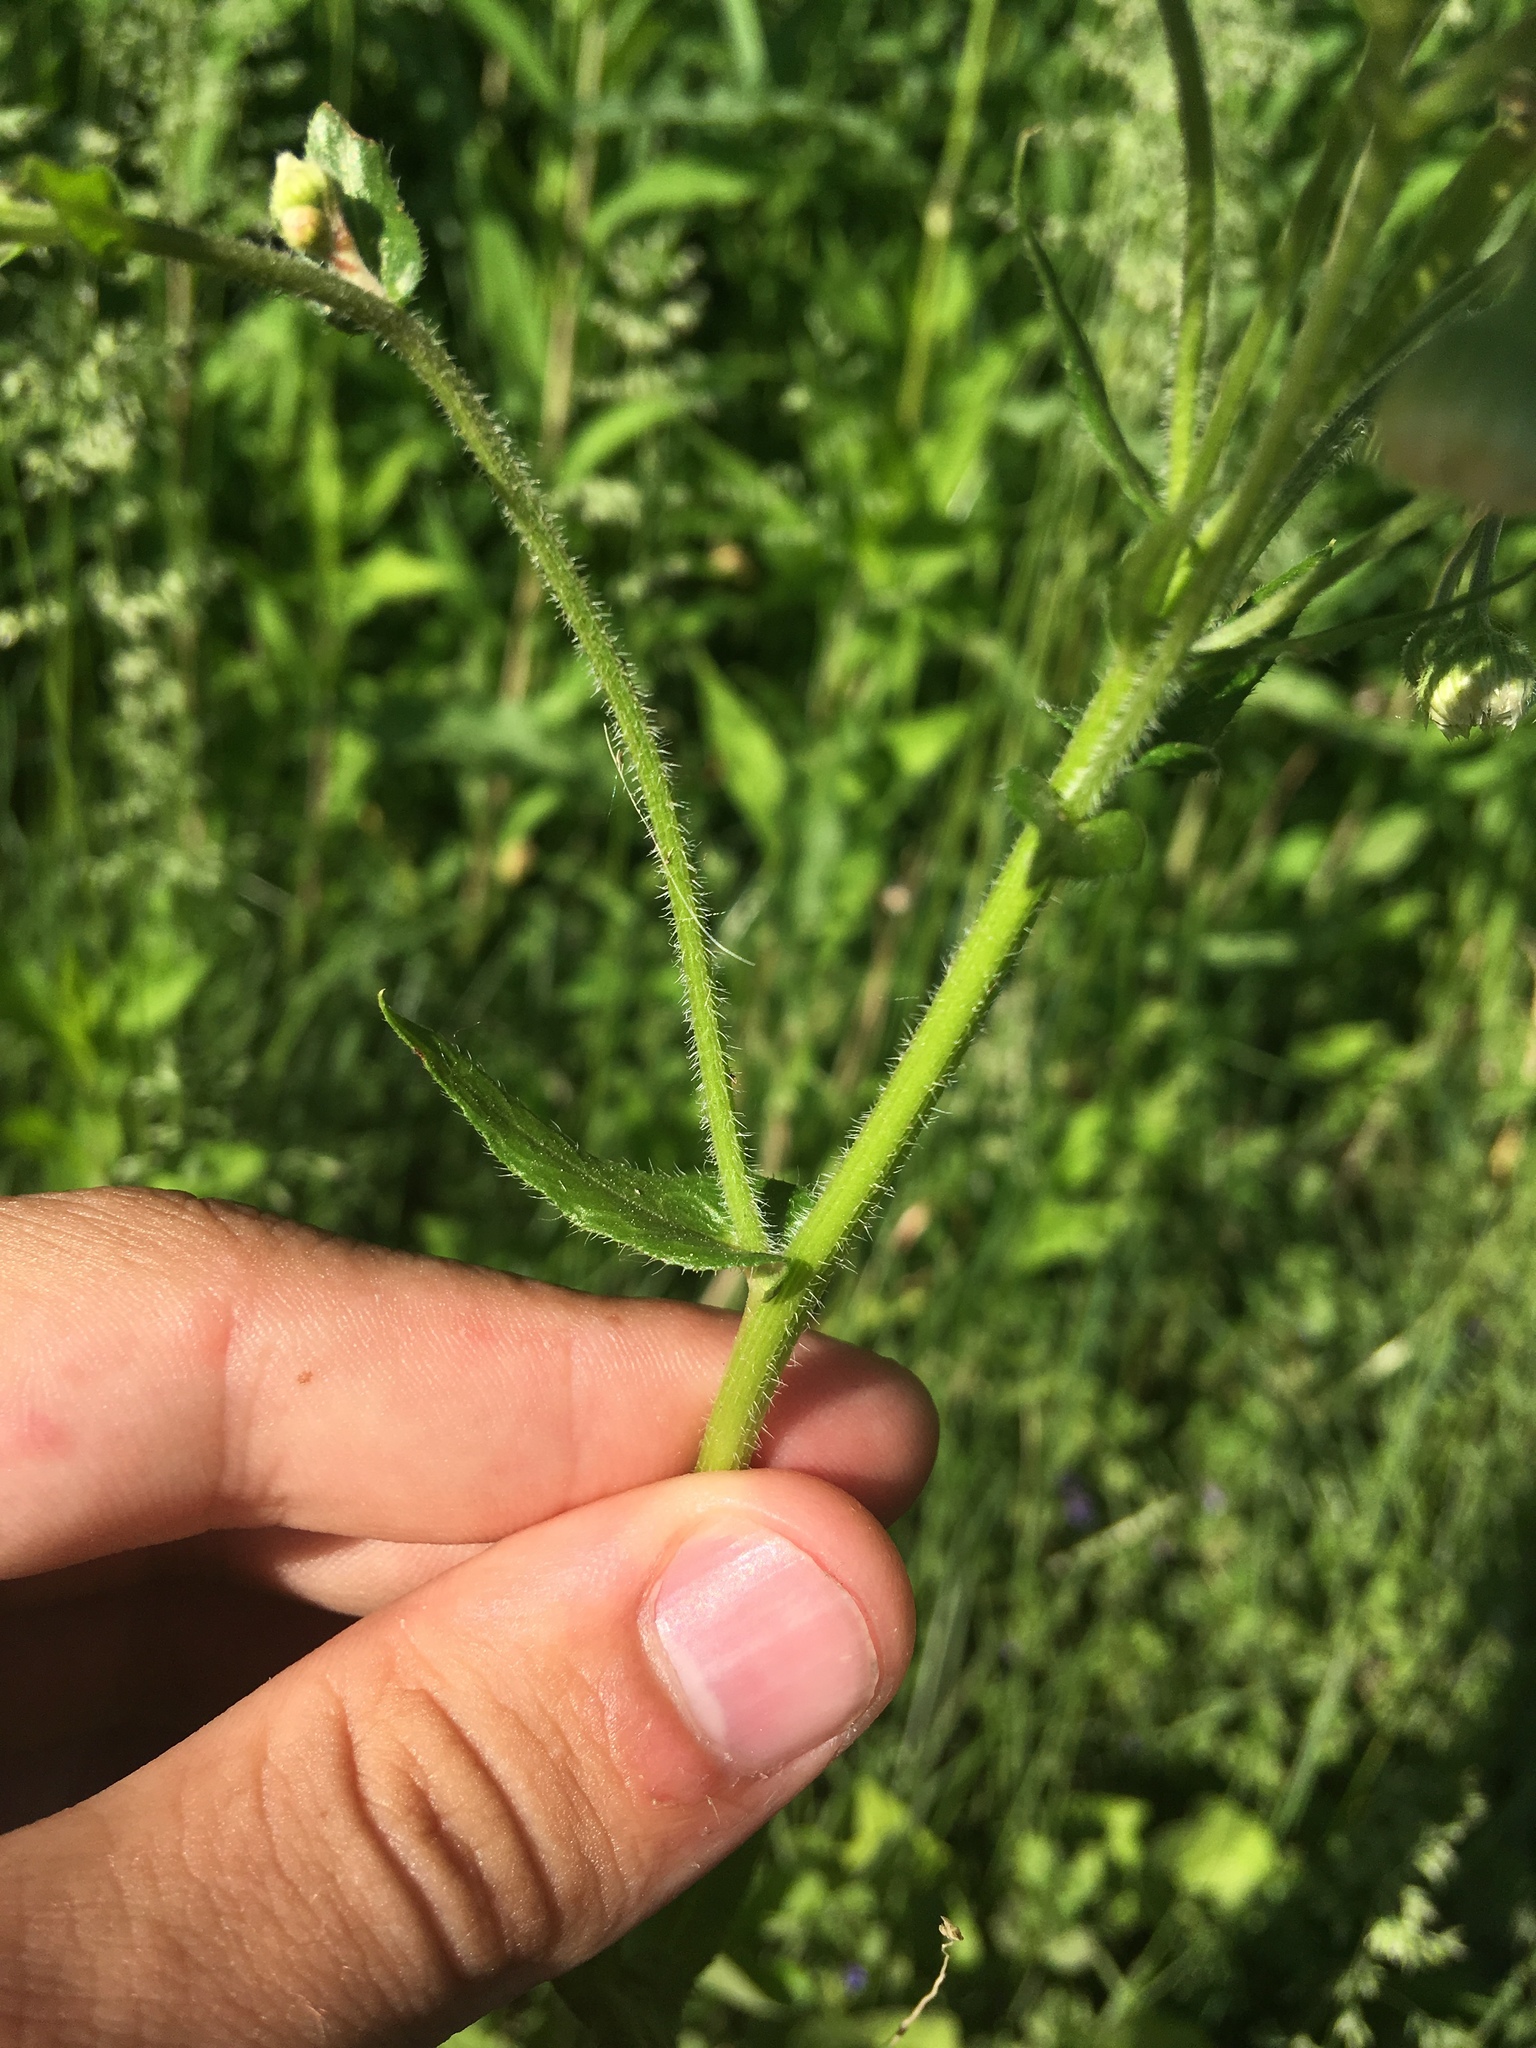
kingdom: Plantae
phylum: Tracheophyta
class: Magnoliopsida
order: Asterales
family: Asteraceae
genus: Erigeron
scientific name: Erigeron philadelphicus
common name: Robin's-plantain
